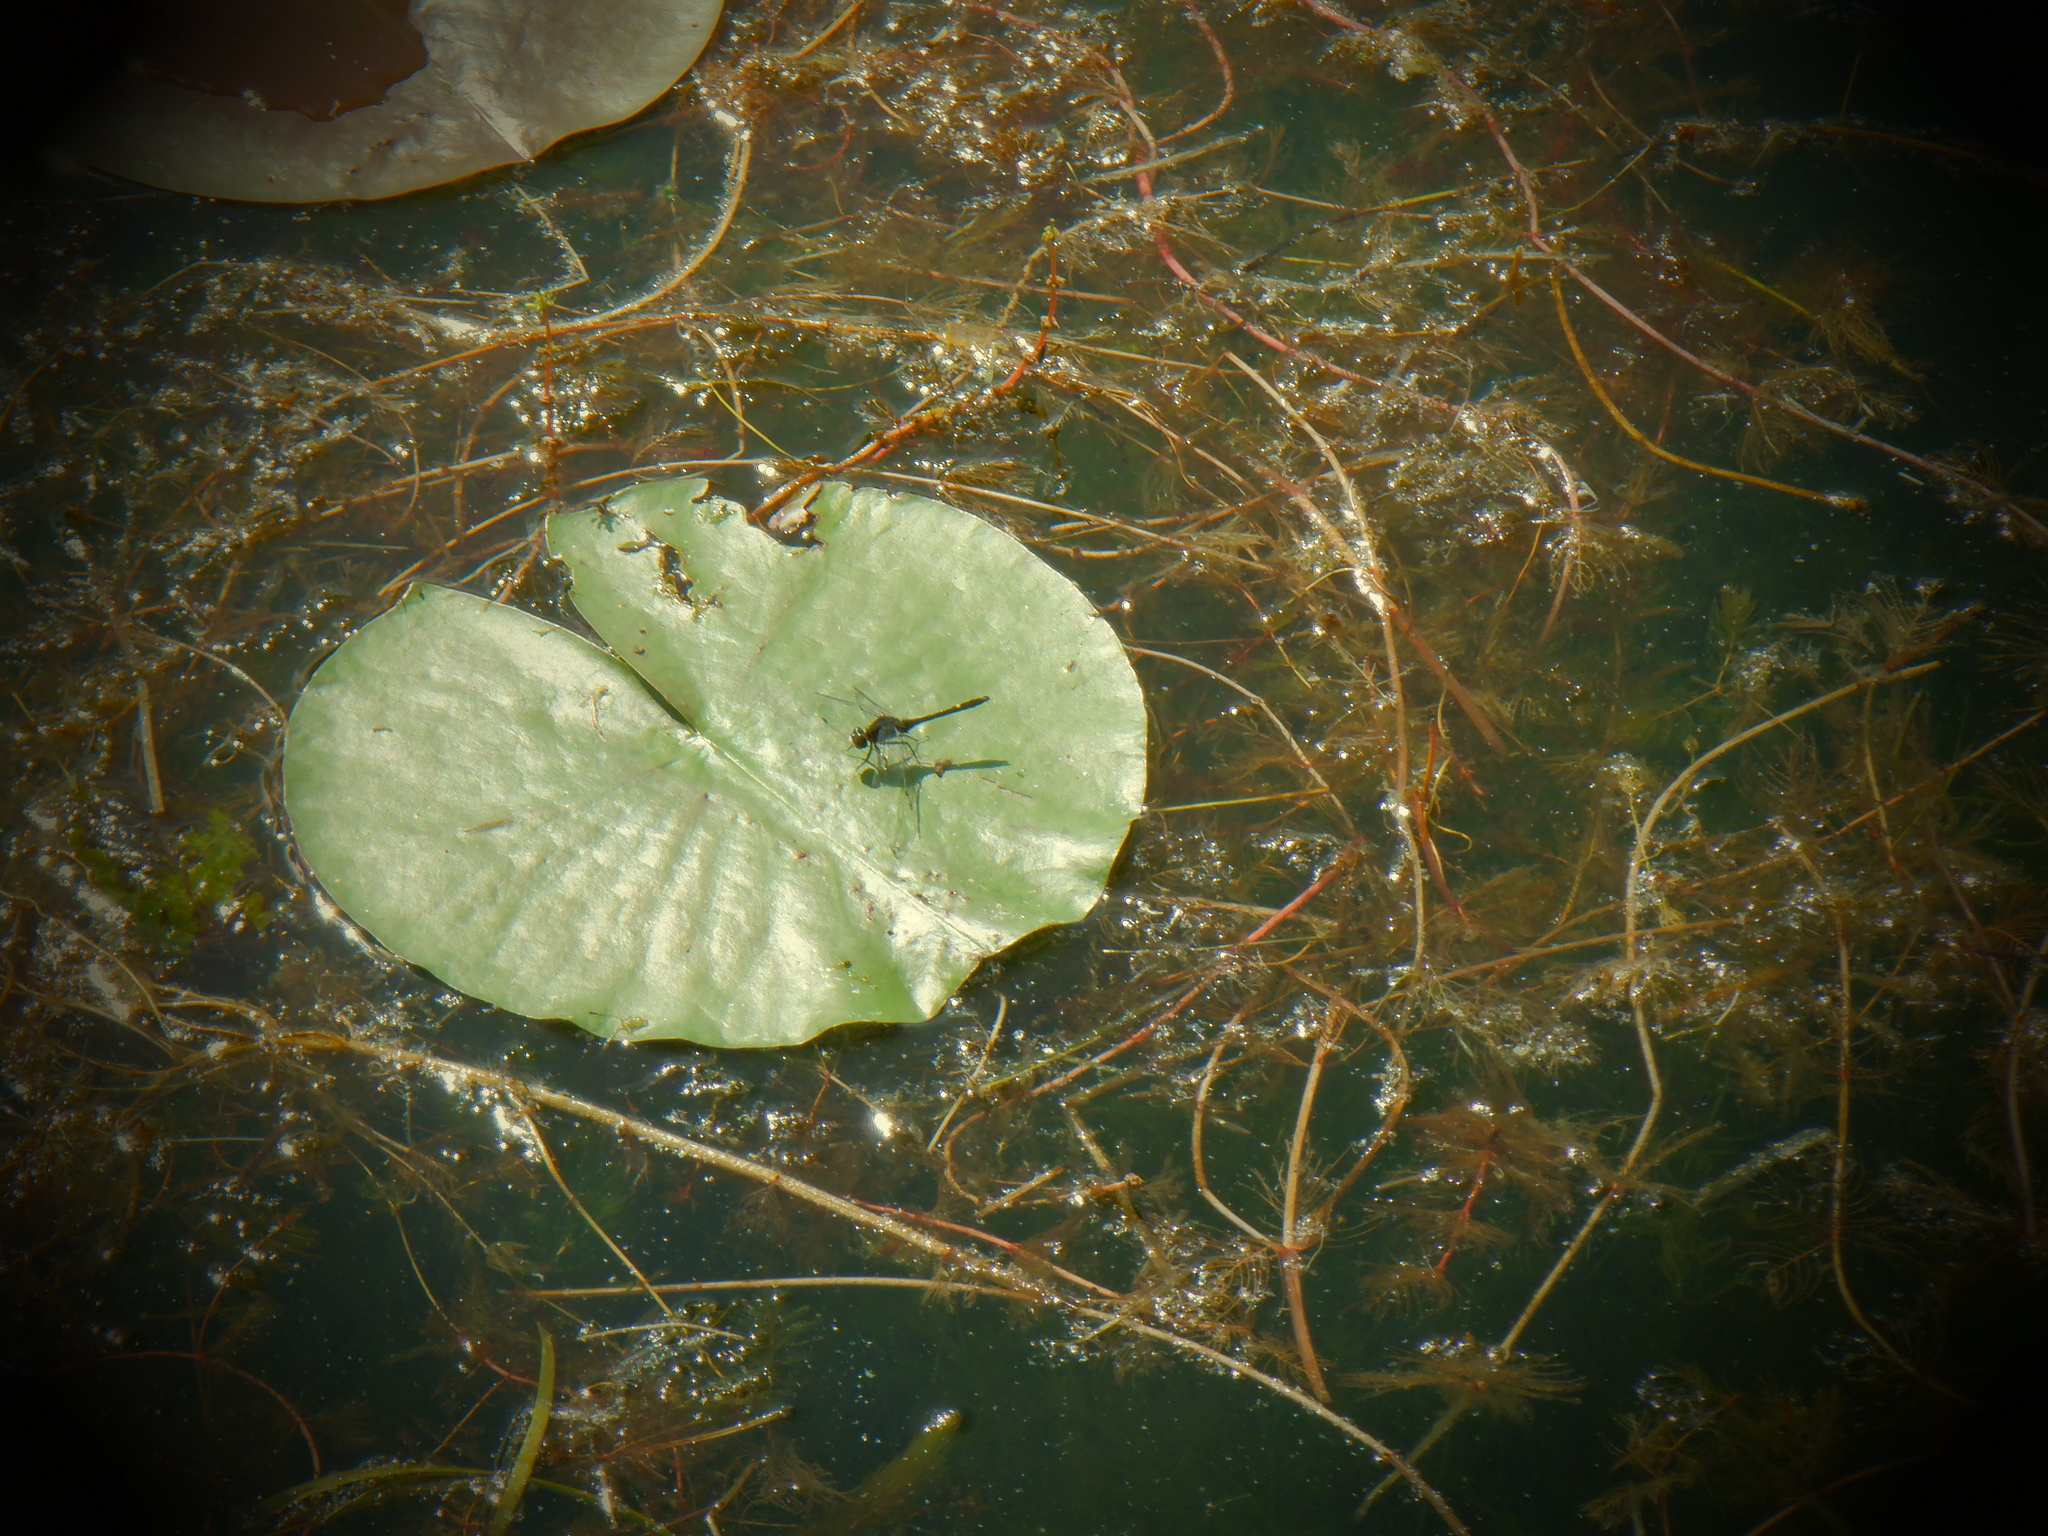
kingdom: Animalia
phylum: Arthropoda
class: Insecta
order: Odonata
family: Libellulidae
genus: Leucorrhinia
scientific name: Leucorrhinia intacta
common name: Dot-tailed whiteface
